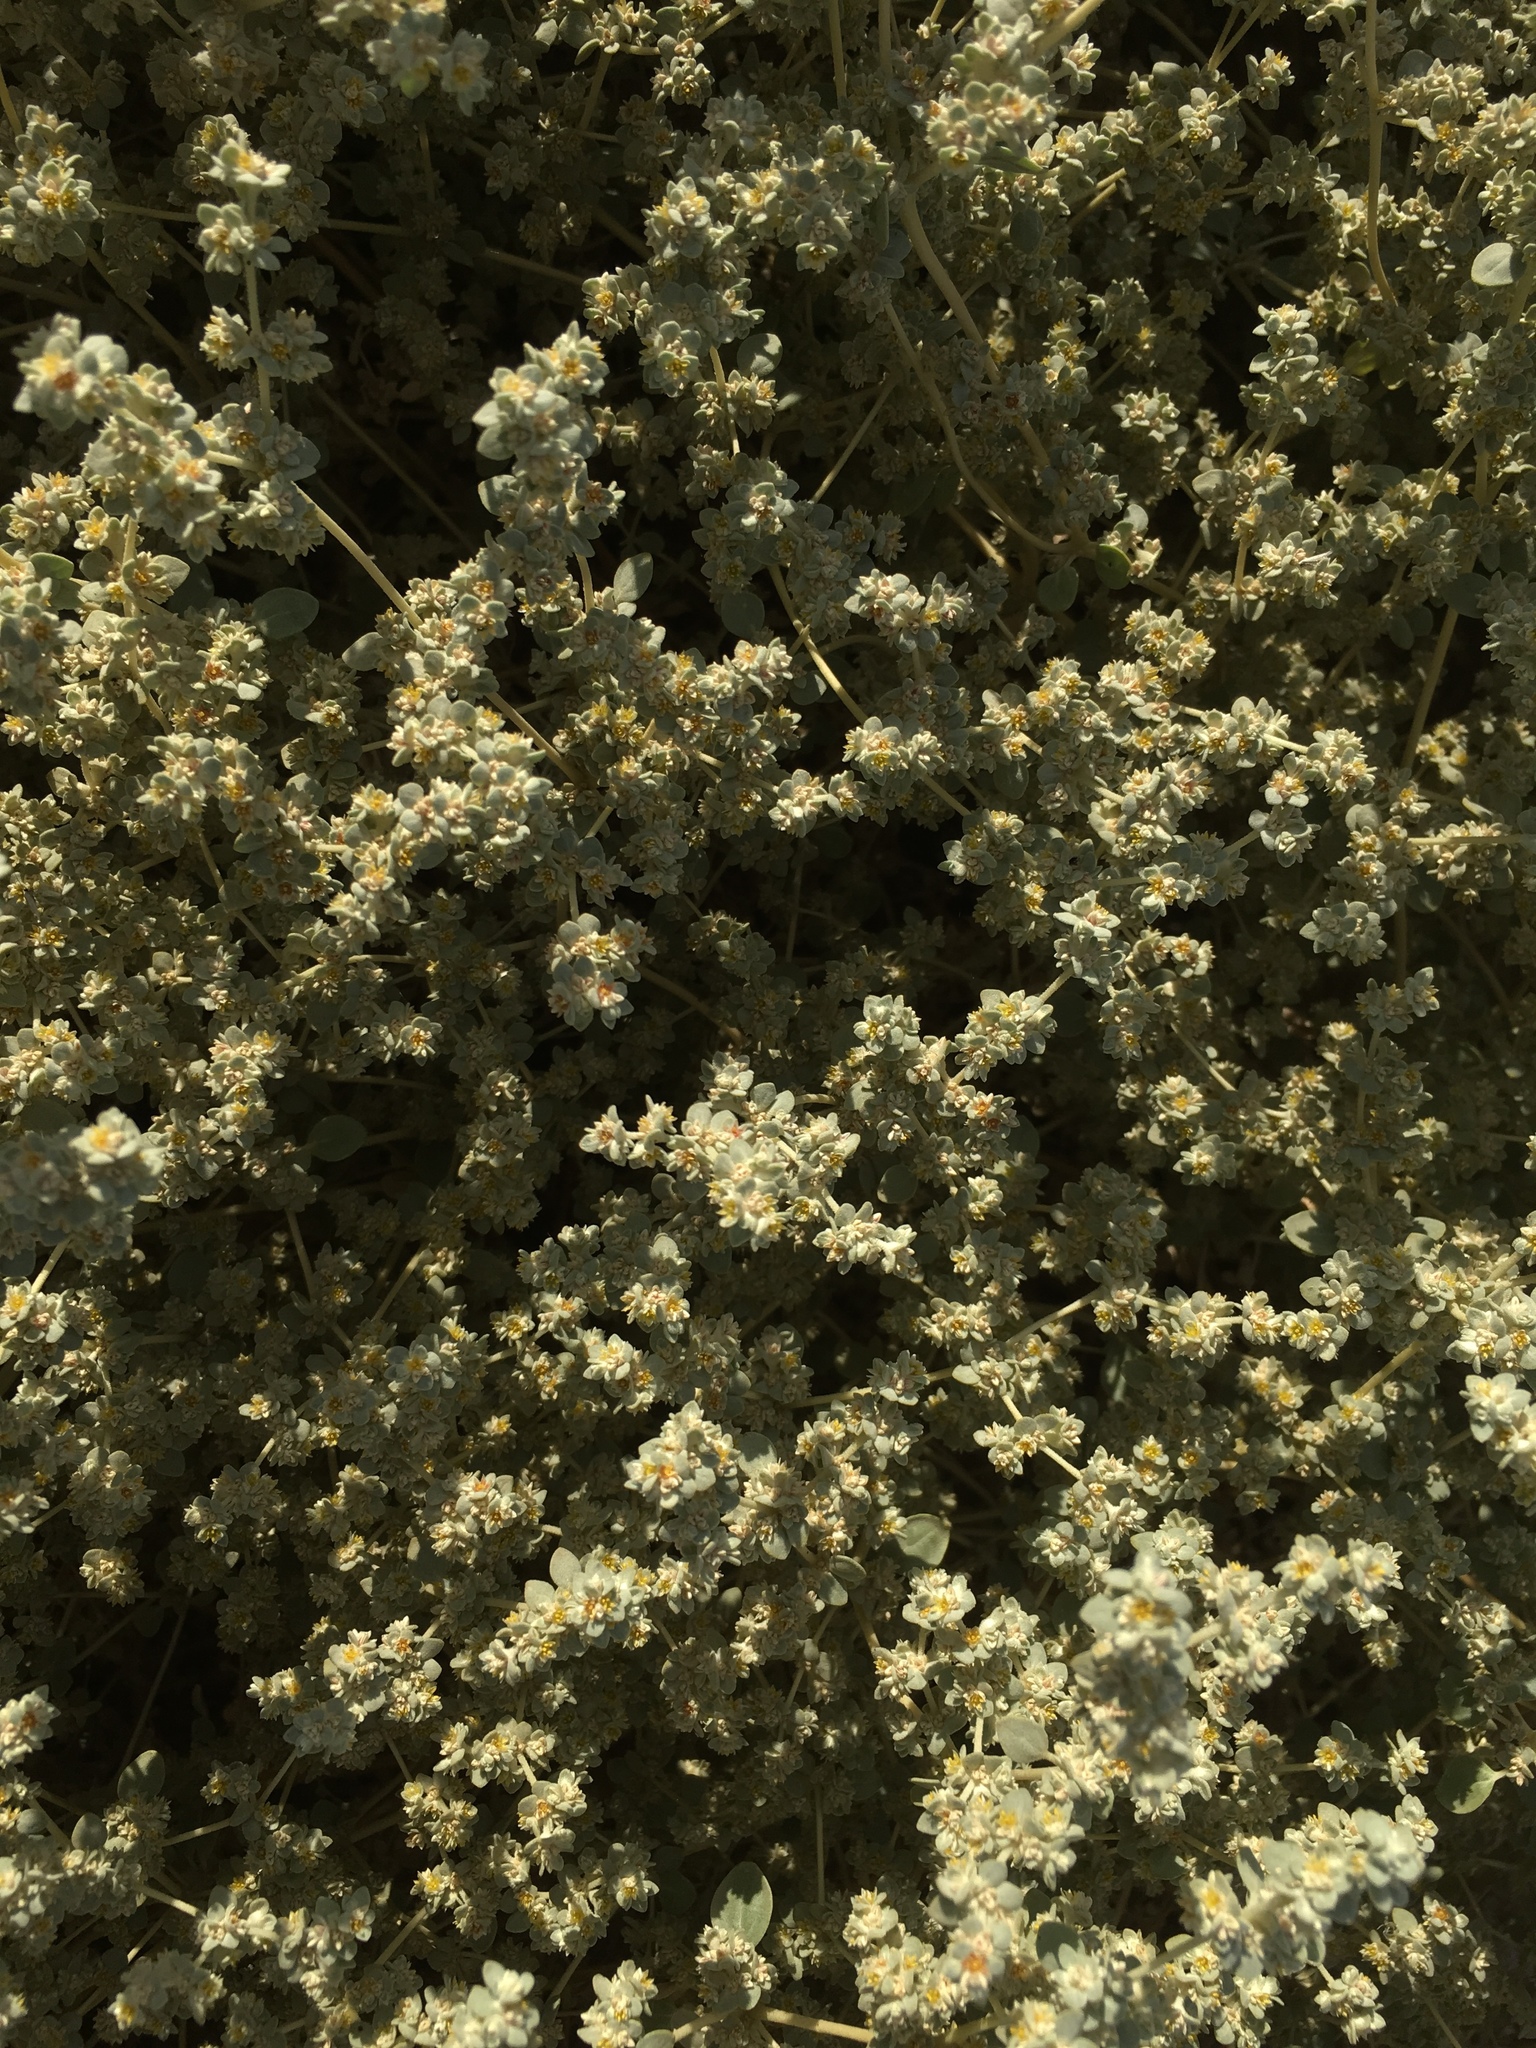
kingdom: Plantae
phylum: Tracheophyta
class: Magnoliopsida
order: Caryophyllales
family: Amaranthaceae
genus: Tidestromia
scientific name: Tidestromia suffruticosa
